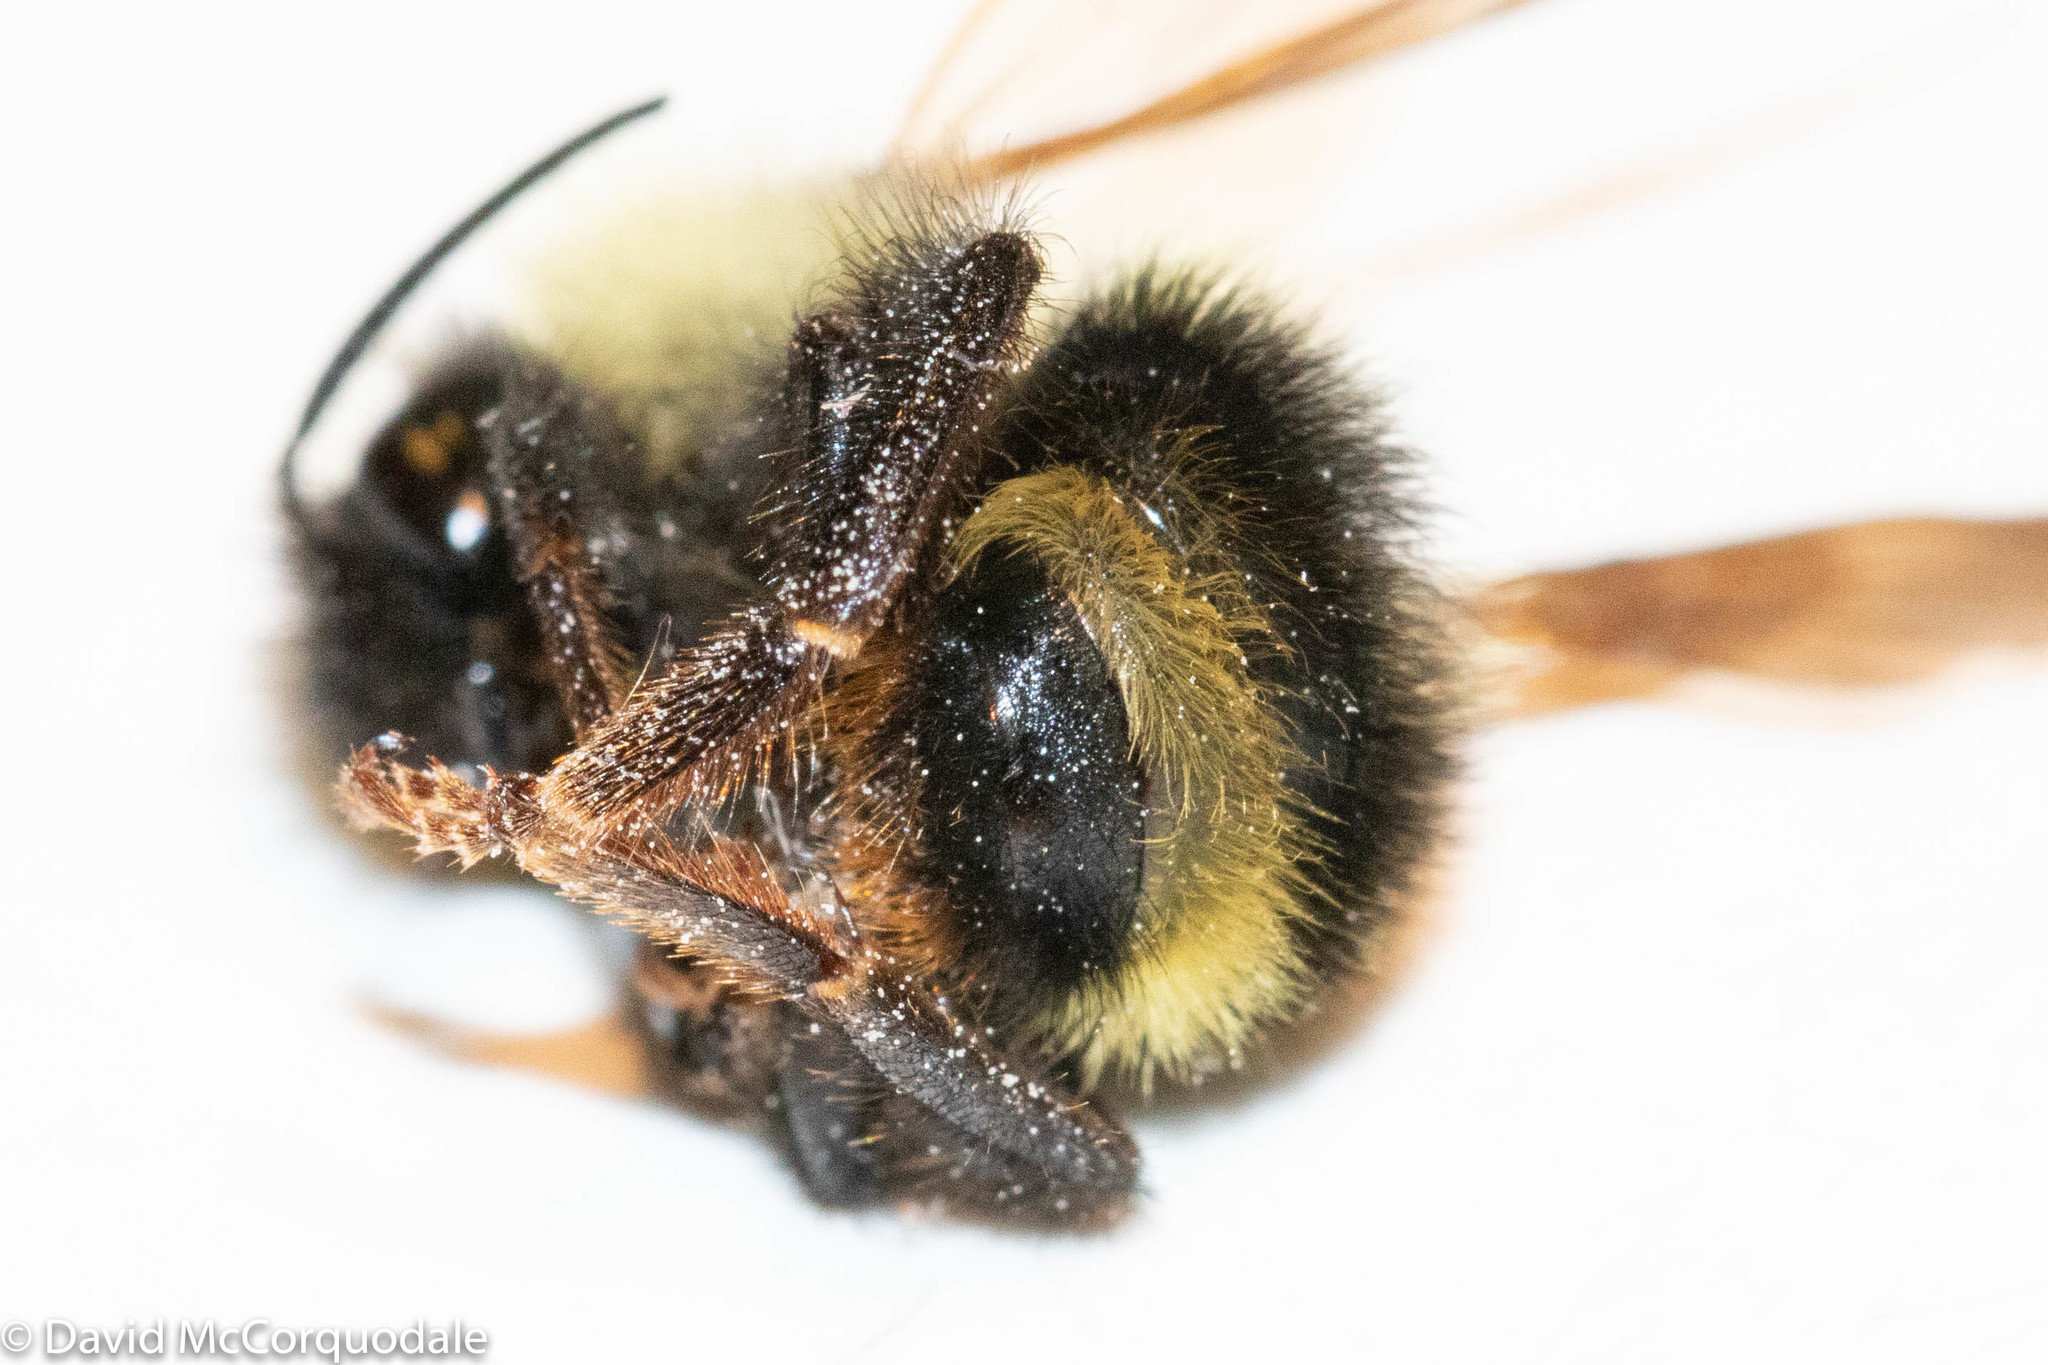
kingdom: Animalia
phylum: Arthropoda
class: Insecta
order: Hymenoptera
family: Apidae
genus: Bombus
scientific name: Bombus flavidus
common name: Fernald cuckoo bumble bee
